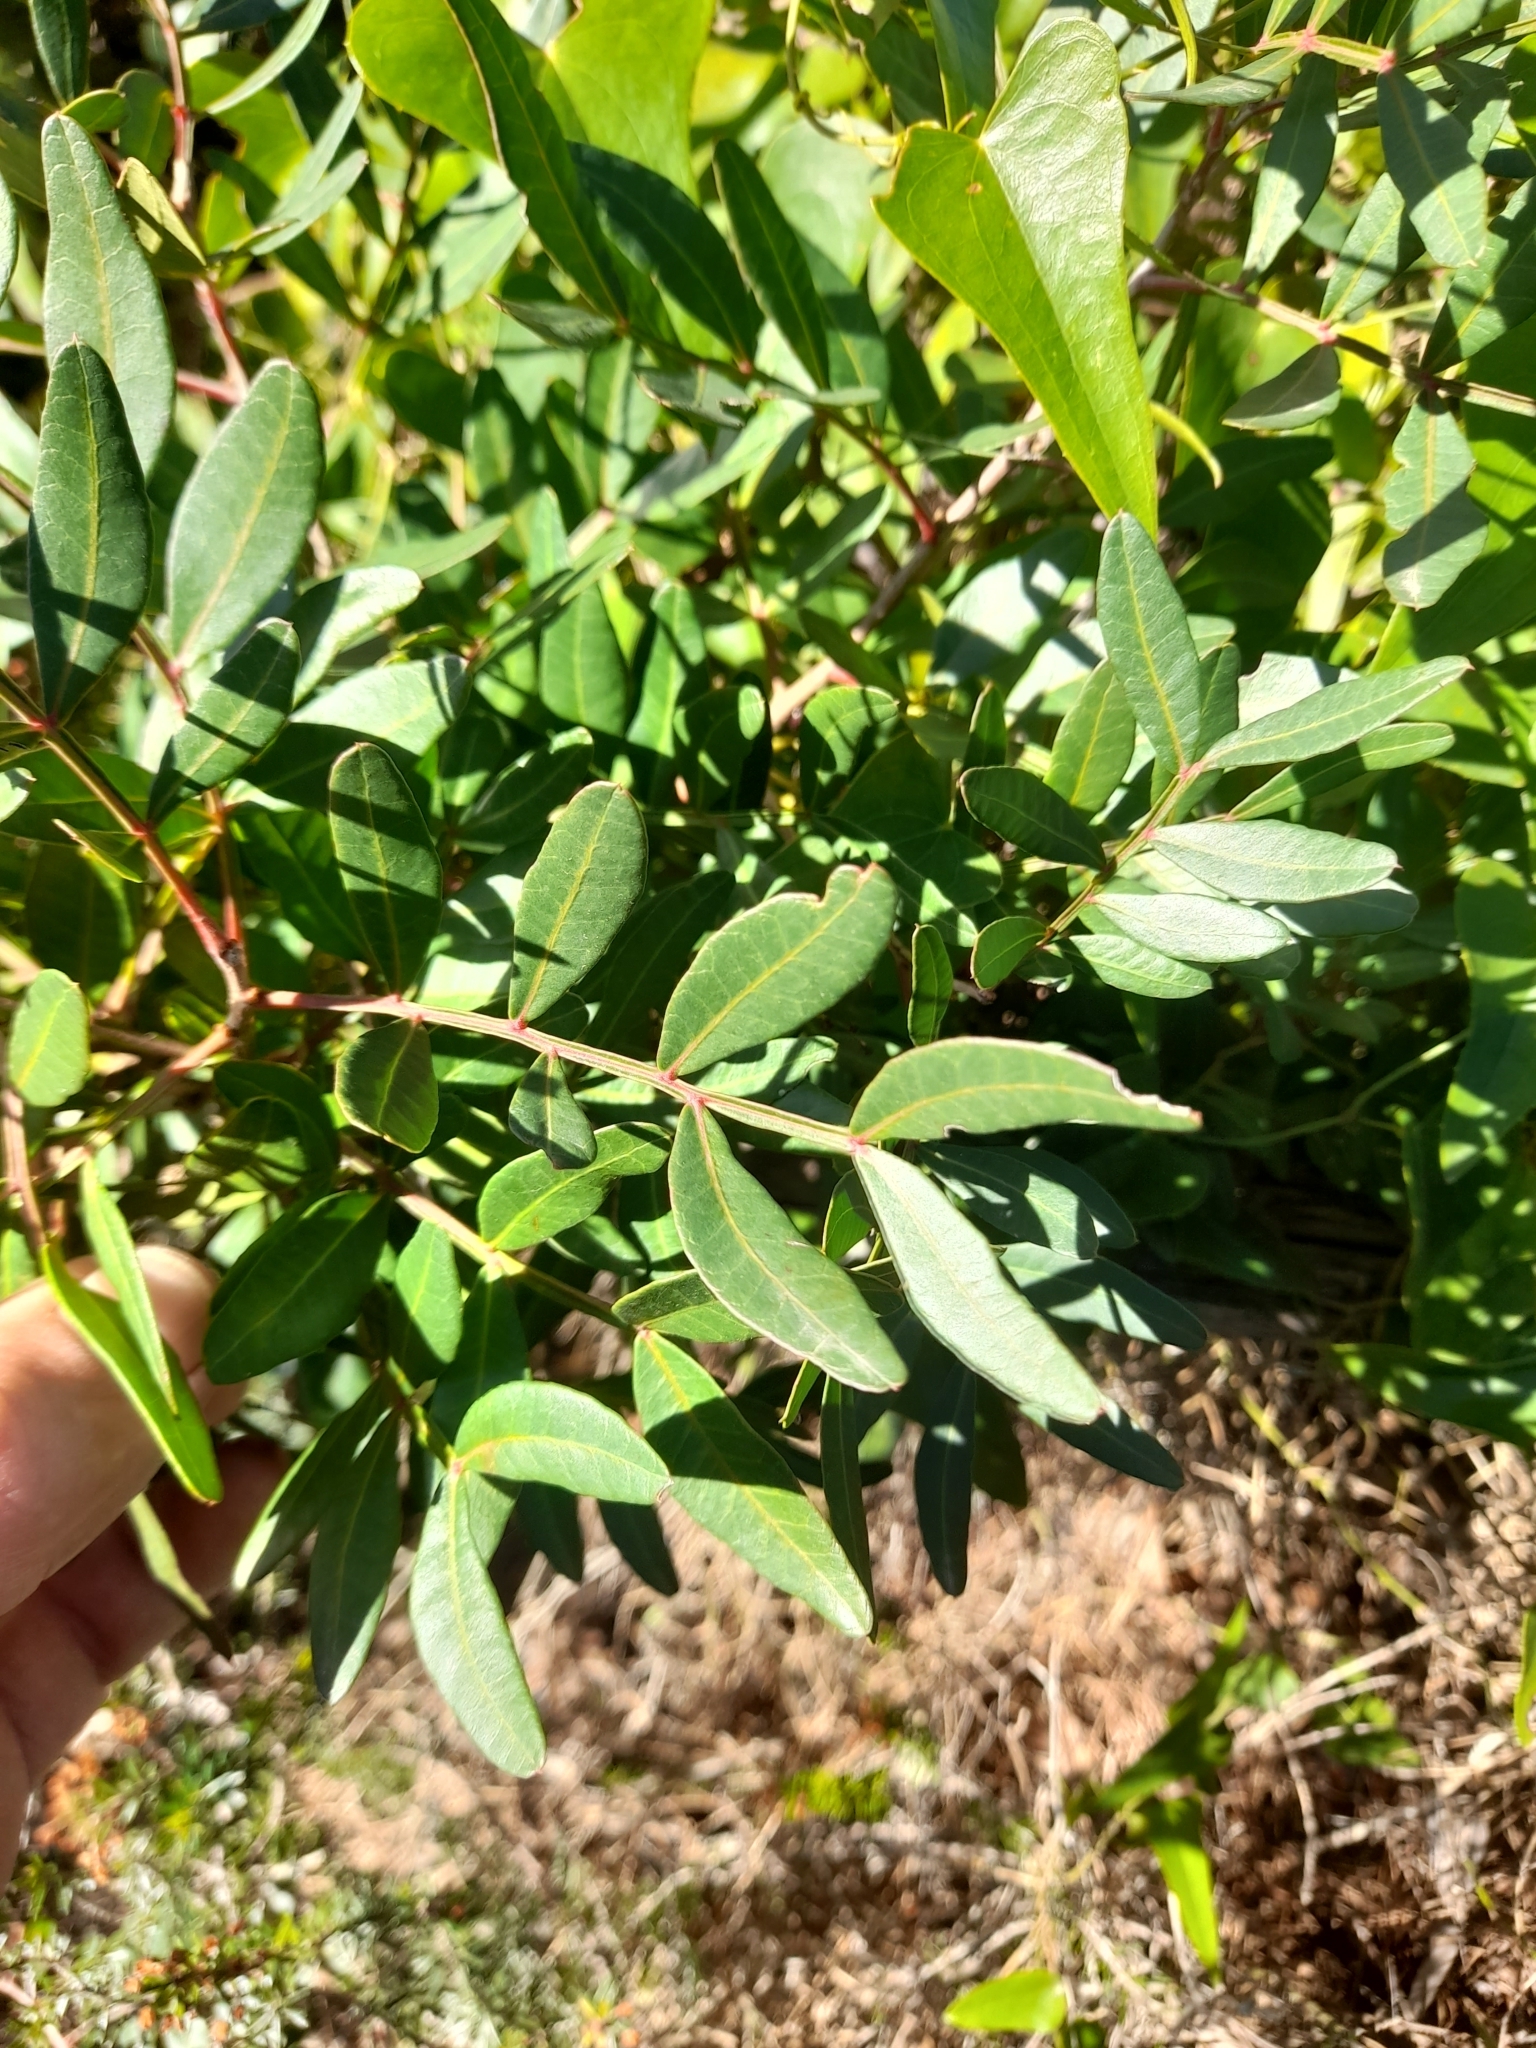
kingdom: Plantae
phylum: Tracheophyta
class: Magnoliopsida
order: Sapindales
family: Anacardiaceae
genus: Pistacia
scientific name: Pistacia lentiscus
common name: Lentisk
